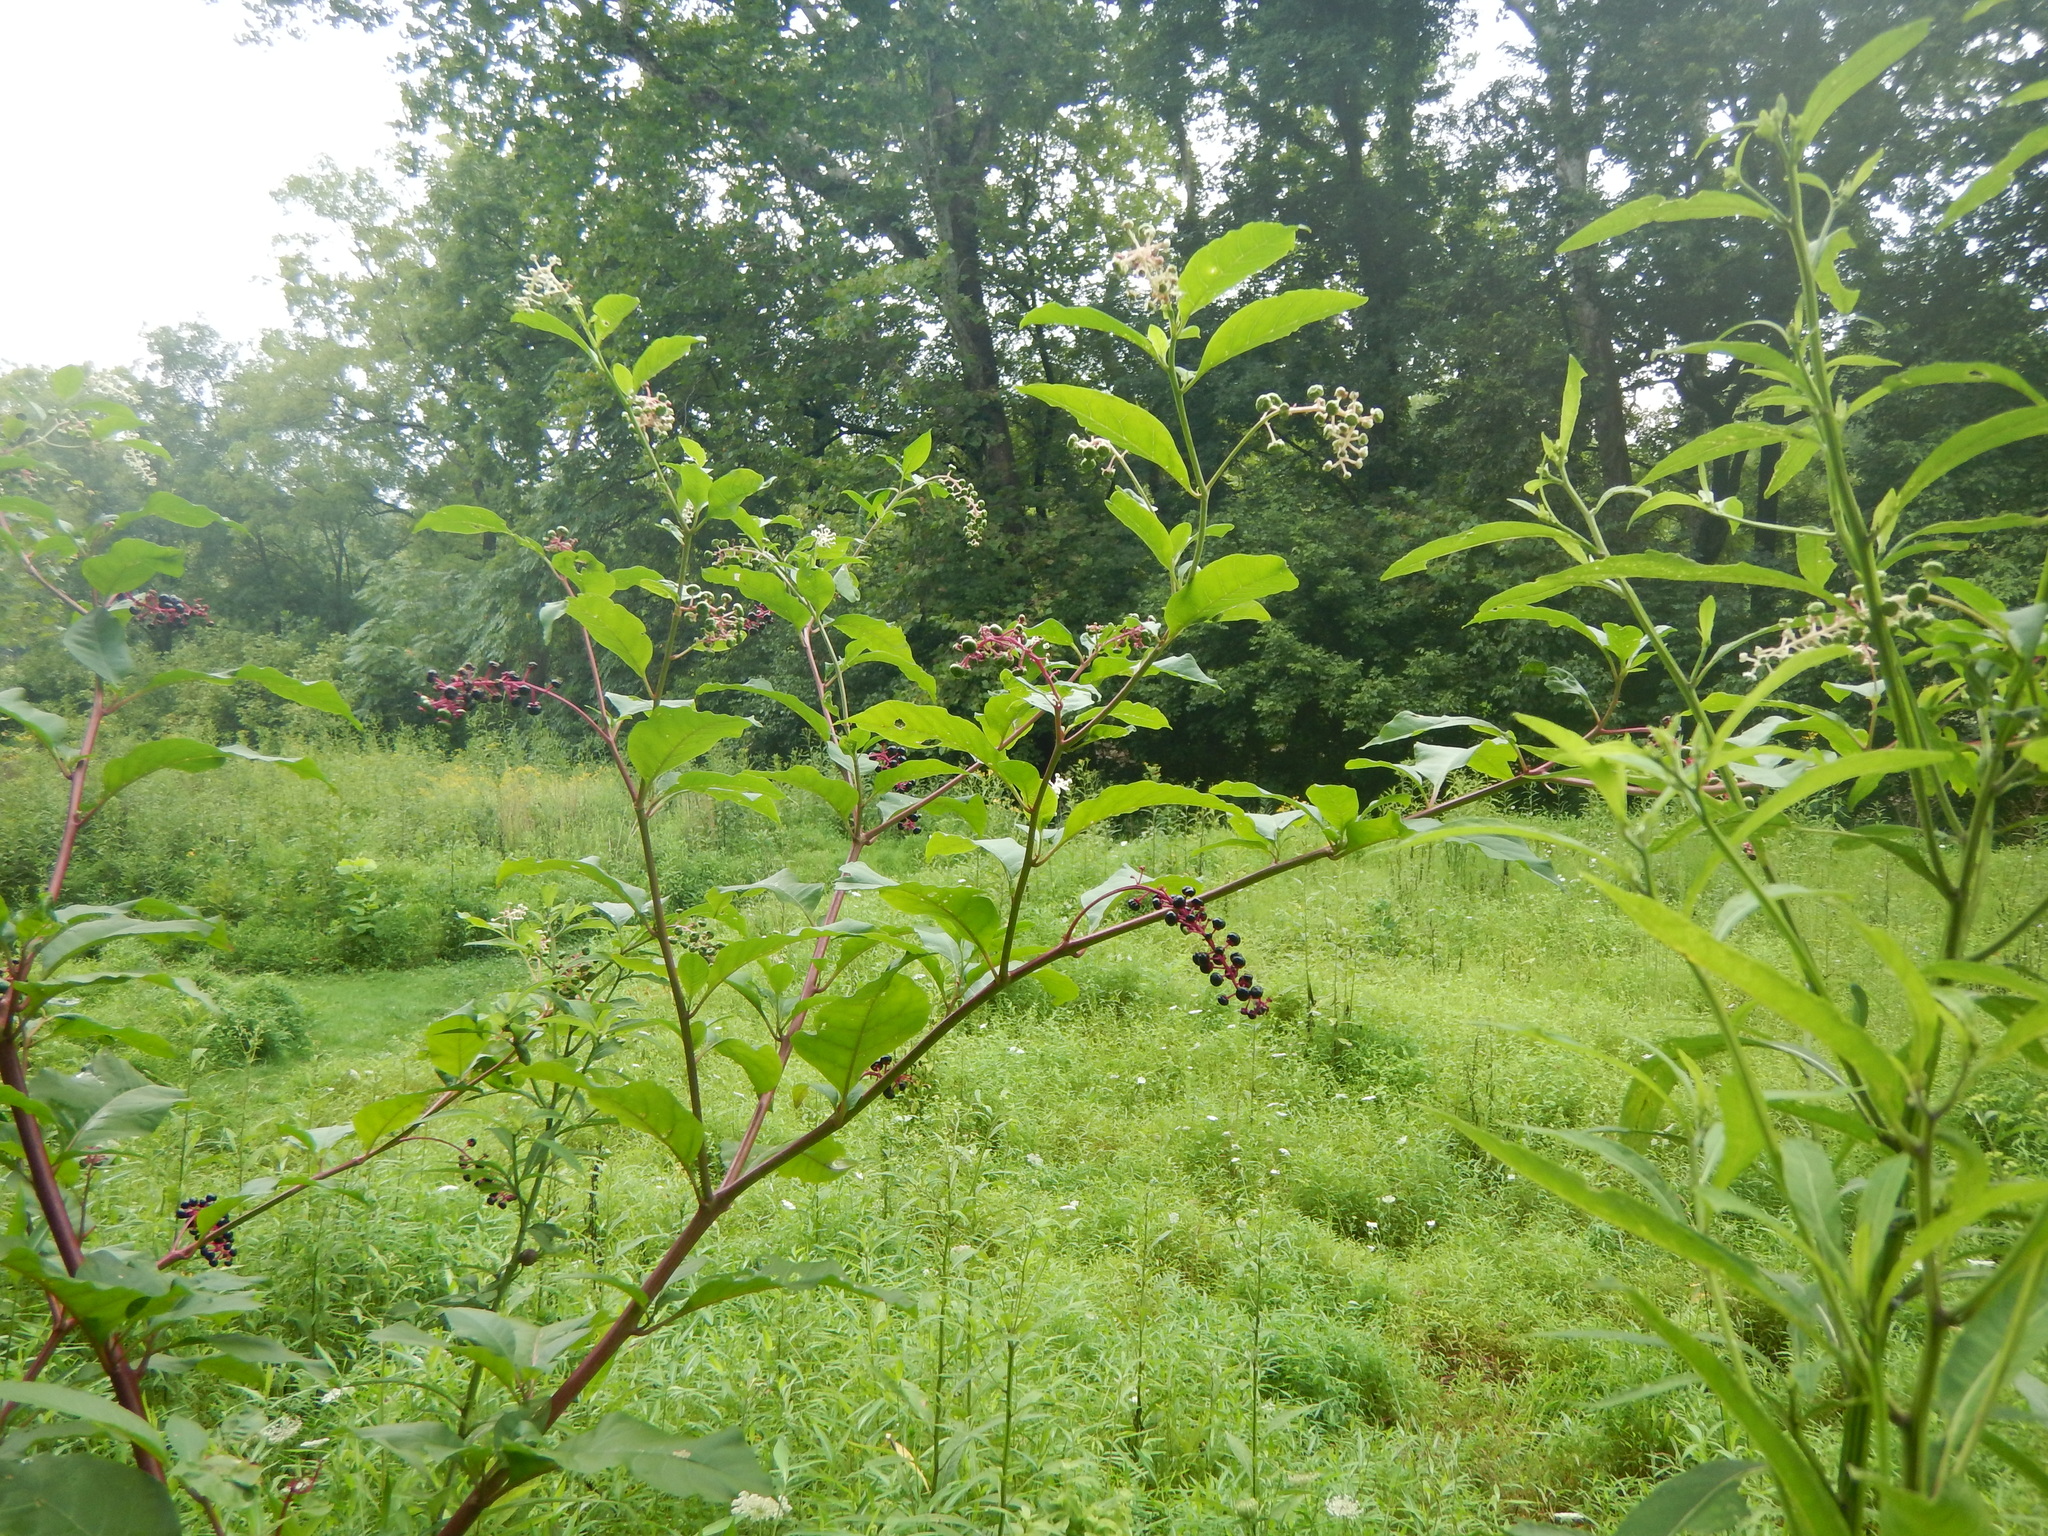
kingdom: Plantae
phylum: Tracheophyta
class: Magnoliopsida
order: Caryophyllales
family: Phytolaccaceae
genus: Phytolacca
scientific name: Phytolacca americana
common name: American pokeweed
